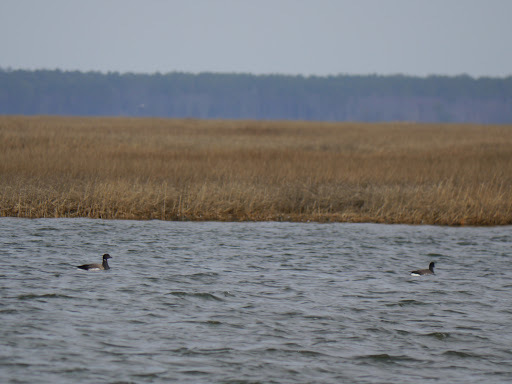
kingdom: Animalia
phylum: Chordata
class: Aves
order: Anseriformes
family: Anatidae
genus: Branta
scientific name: Branta bernicla
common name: Brant goose
